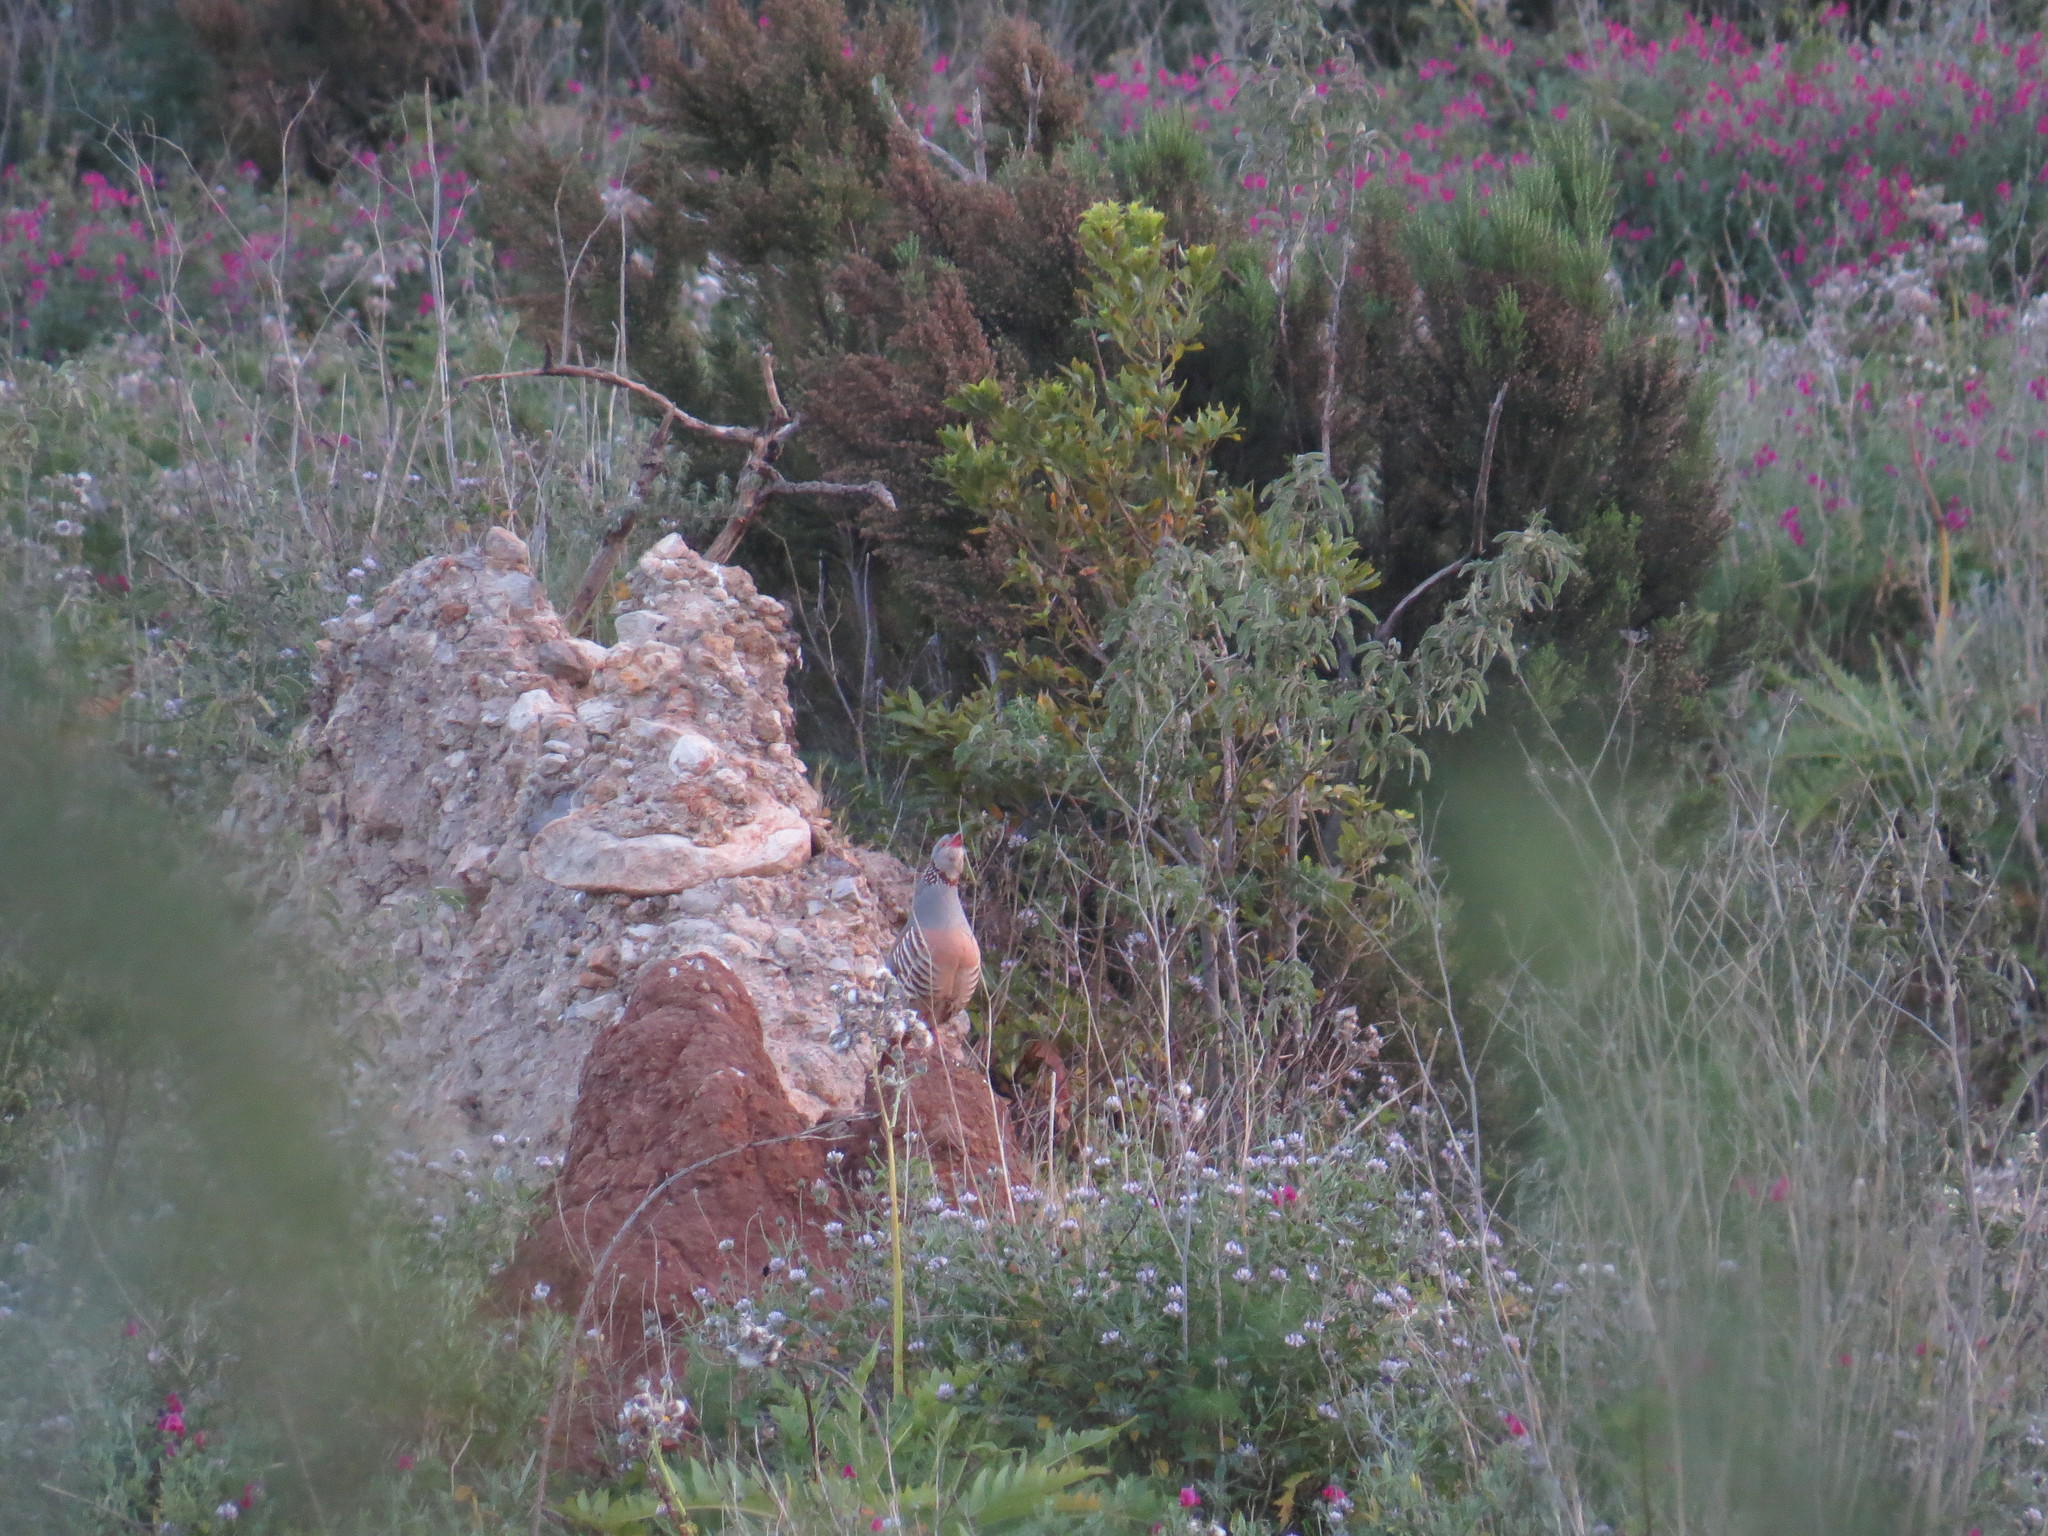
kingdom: Animalia
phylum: Chordata
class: Aves
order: Galliformes
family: Phasianidae
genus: Alectoris
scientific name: Alectoris barbara
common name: Barbary partridge
